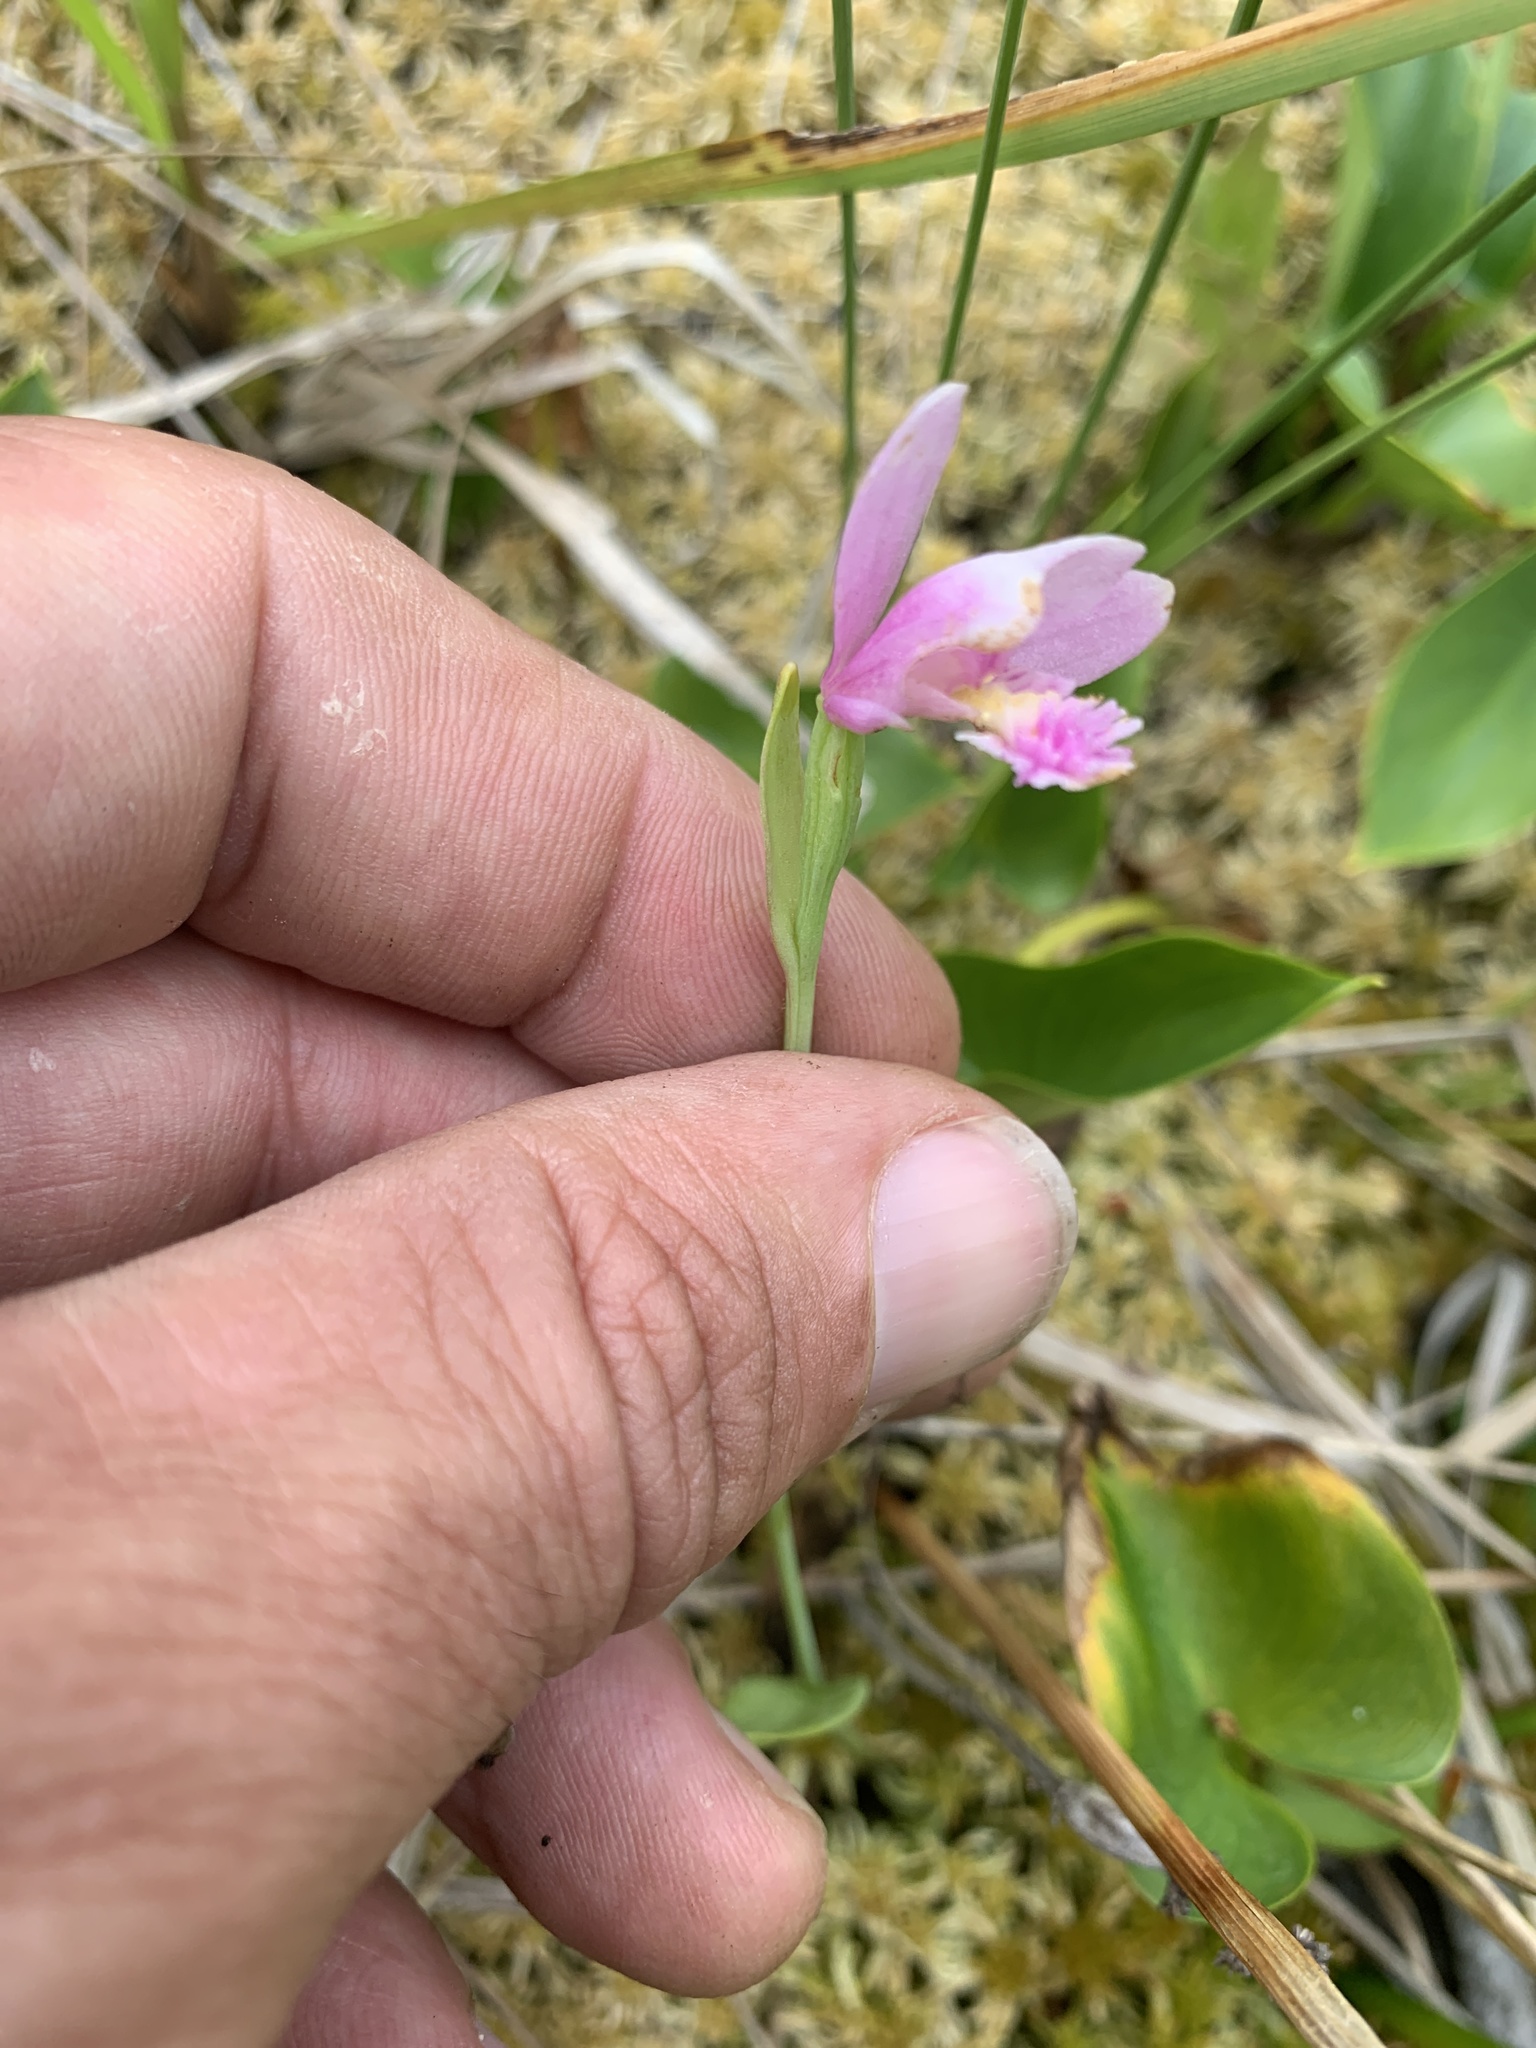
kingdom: Plantae
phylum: Tracheophyta
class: Liliopsida
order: Asparagales
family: Orchidaceae
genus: Pogonia
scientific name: Pogonia ophioglossoides
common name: Rose pogonia
